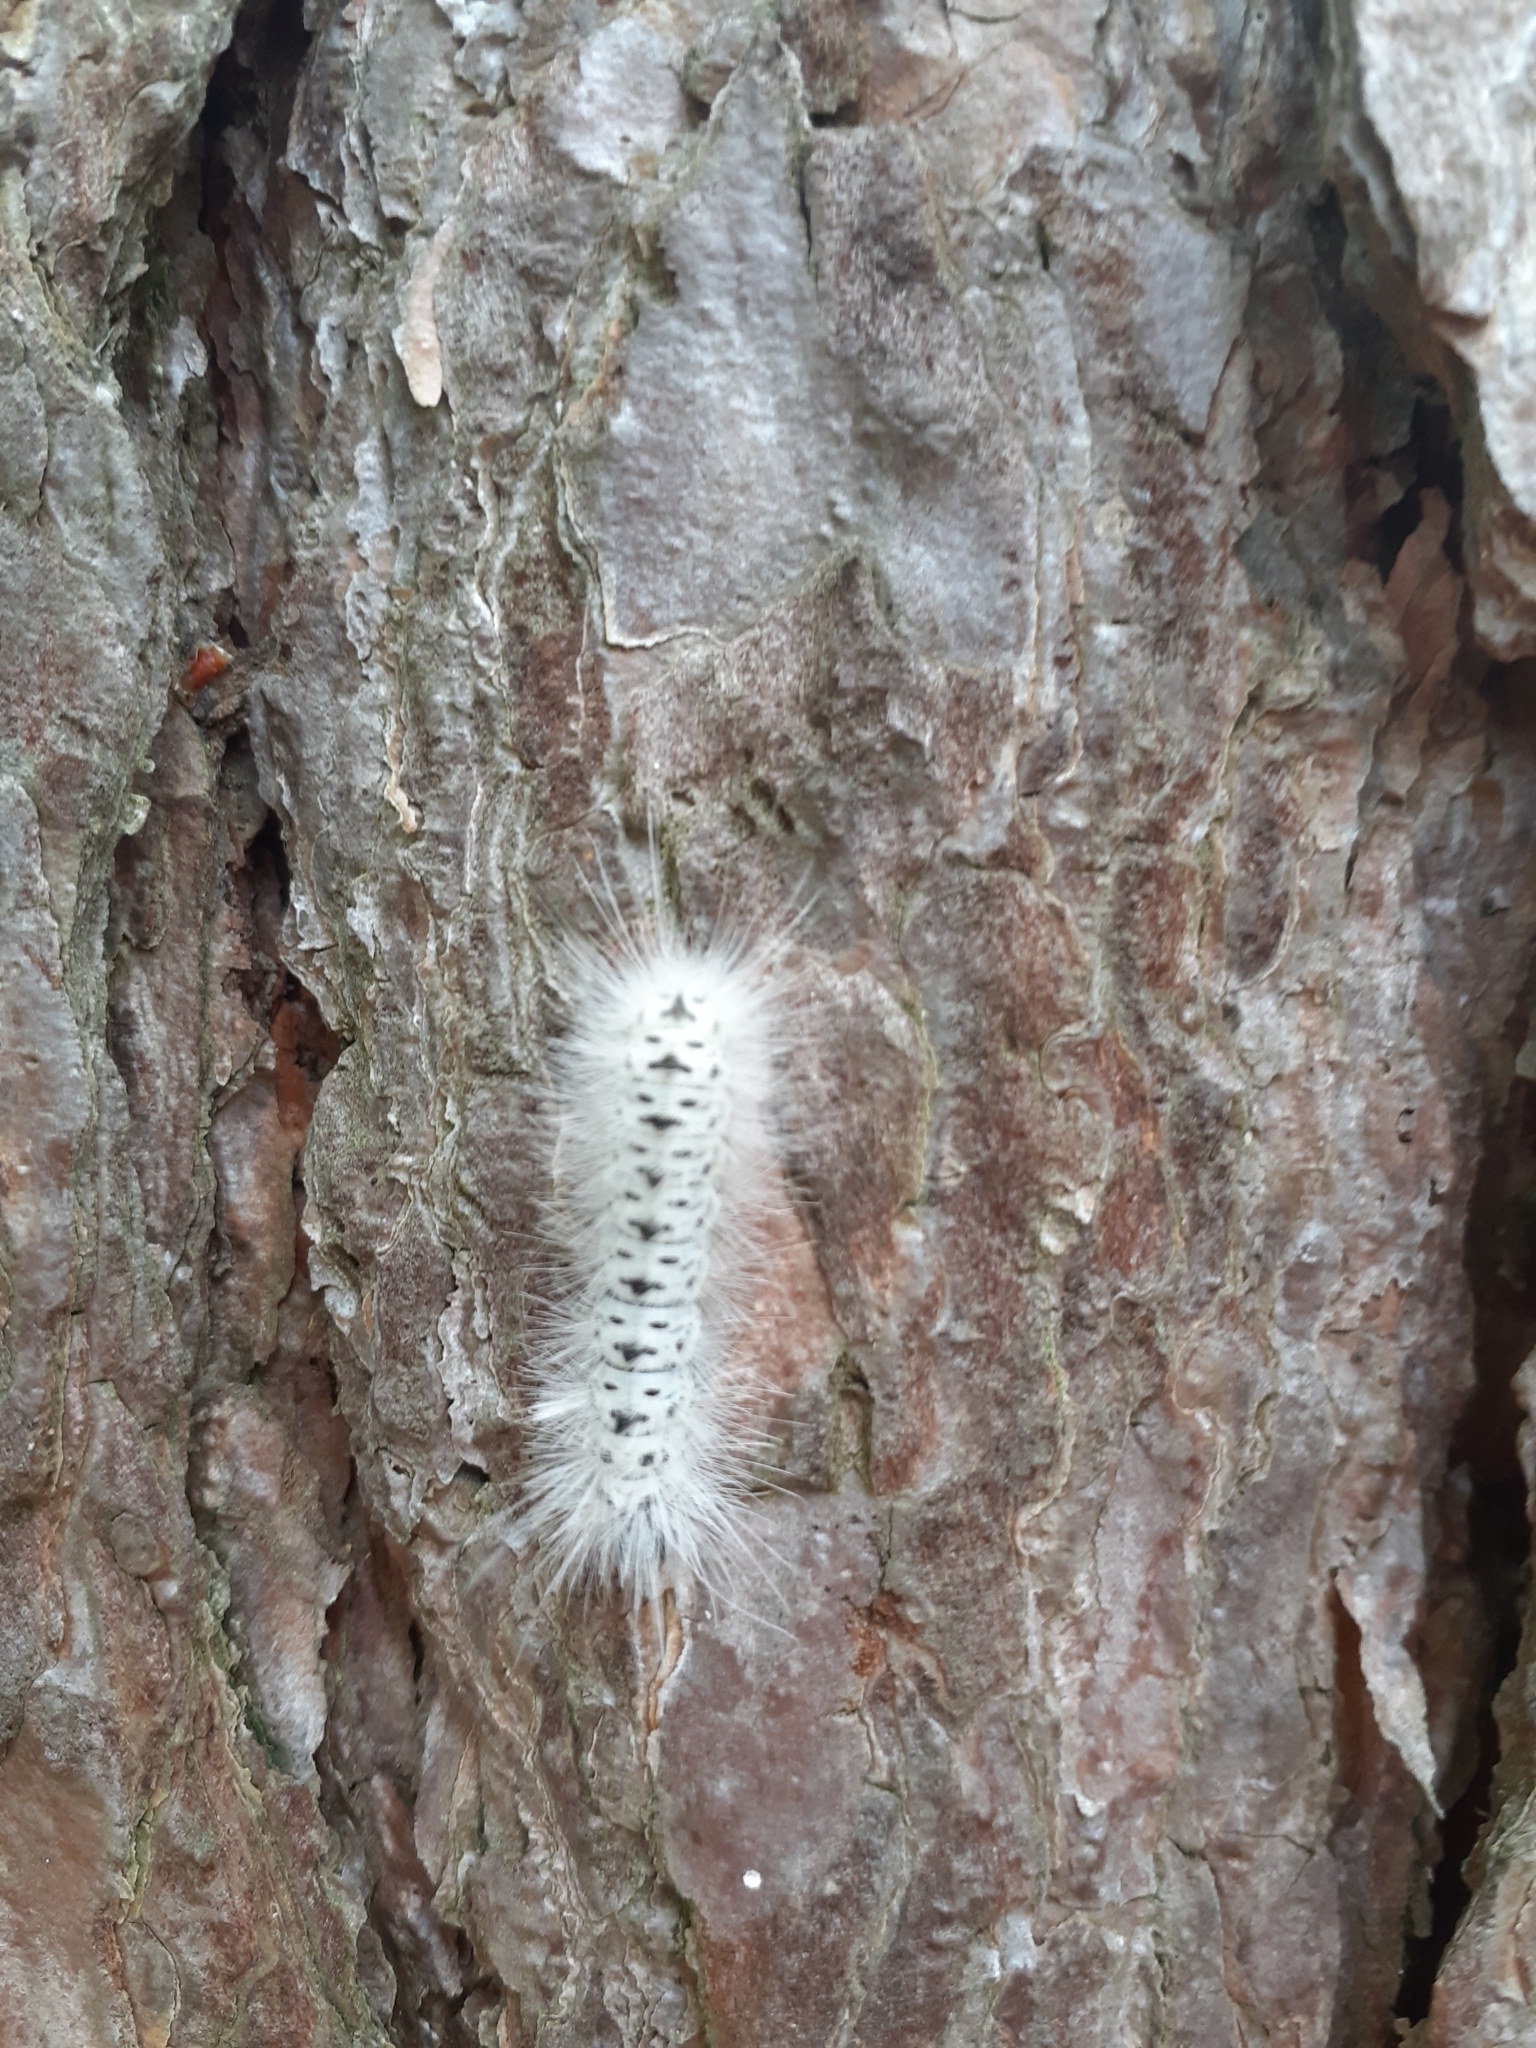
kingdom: Animalia
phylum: Arthropoda
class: Insecta
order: Lepidoptera
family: Erebidae
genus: Lophocampa
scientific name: Lophocampa caryae
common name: Hickory tussock moth
